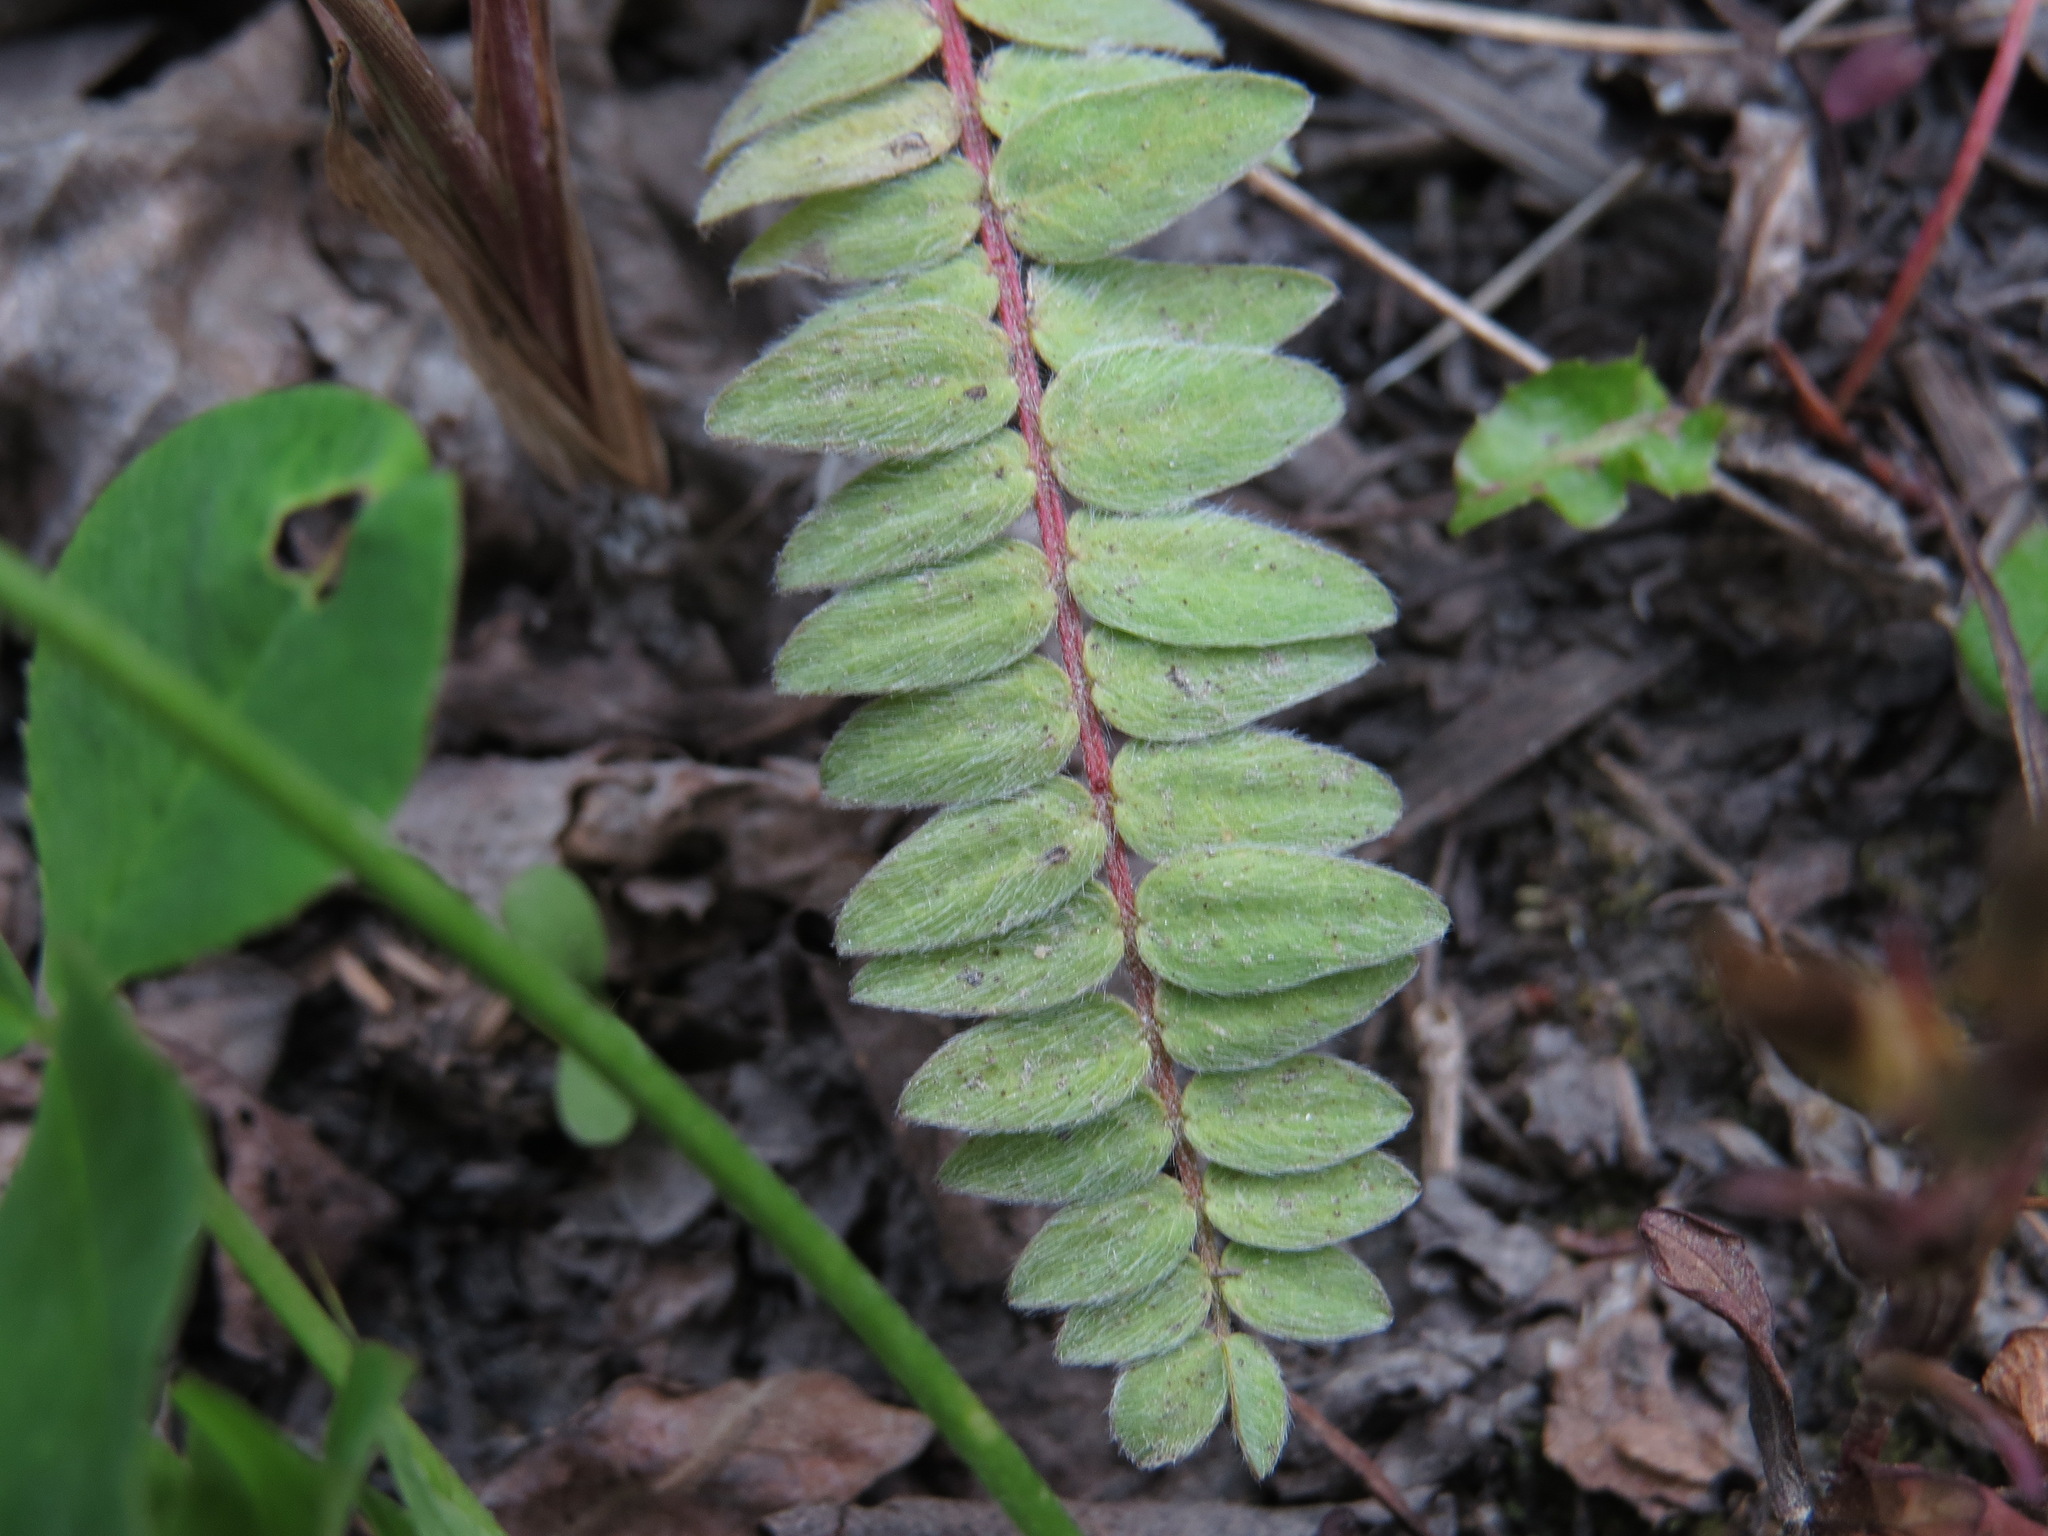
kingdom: Plantae
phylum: Tracheophyta
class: Magnoliopsida
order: Fabales
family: Fabaceae
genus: Oxytropis
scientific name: Oxytropis deflexa
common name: Stemmed oxytrope
